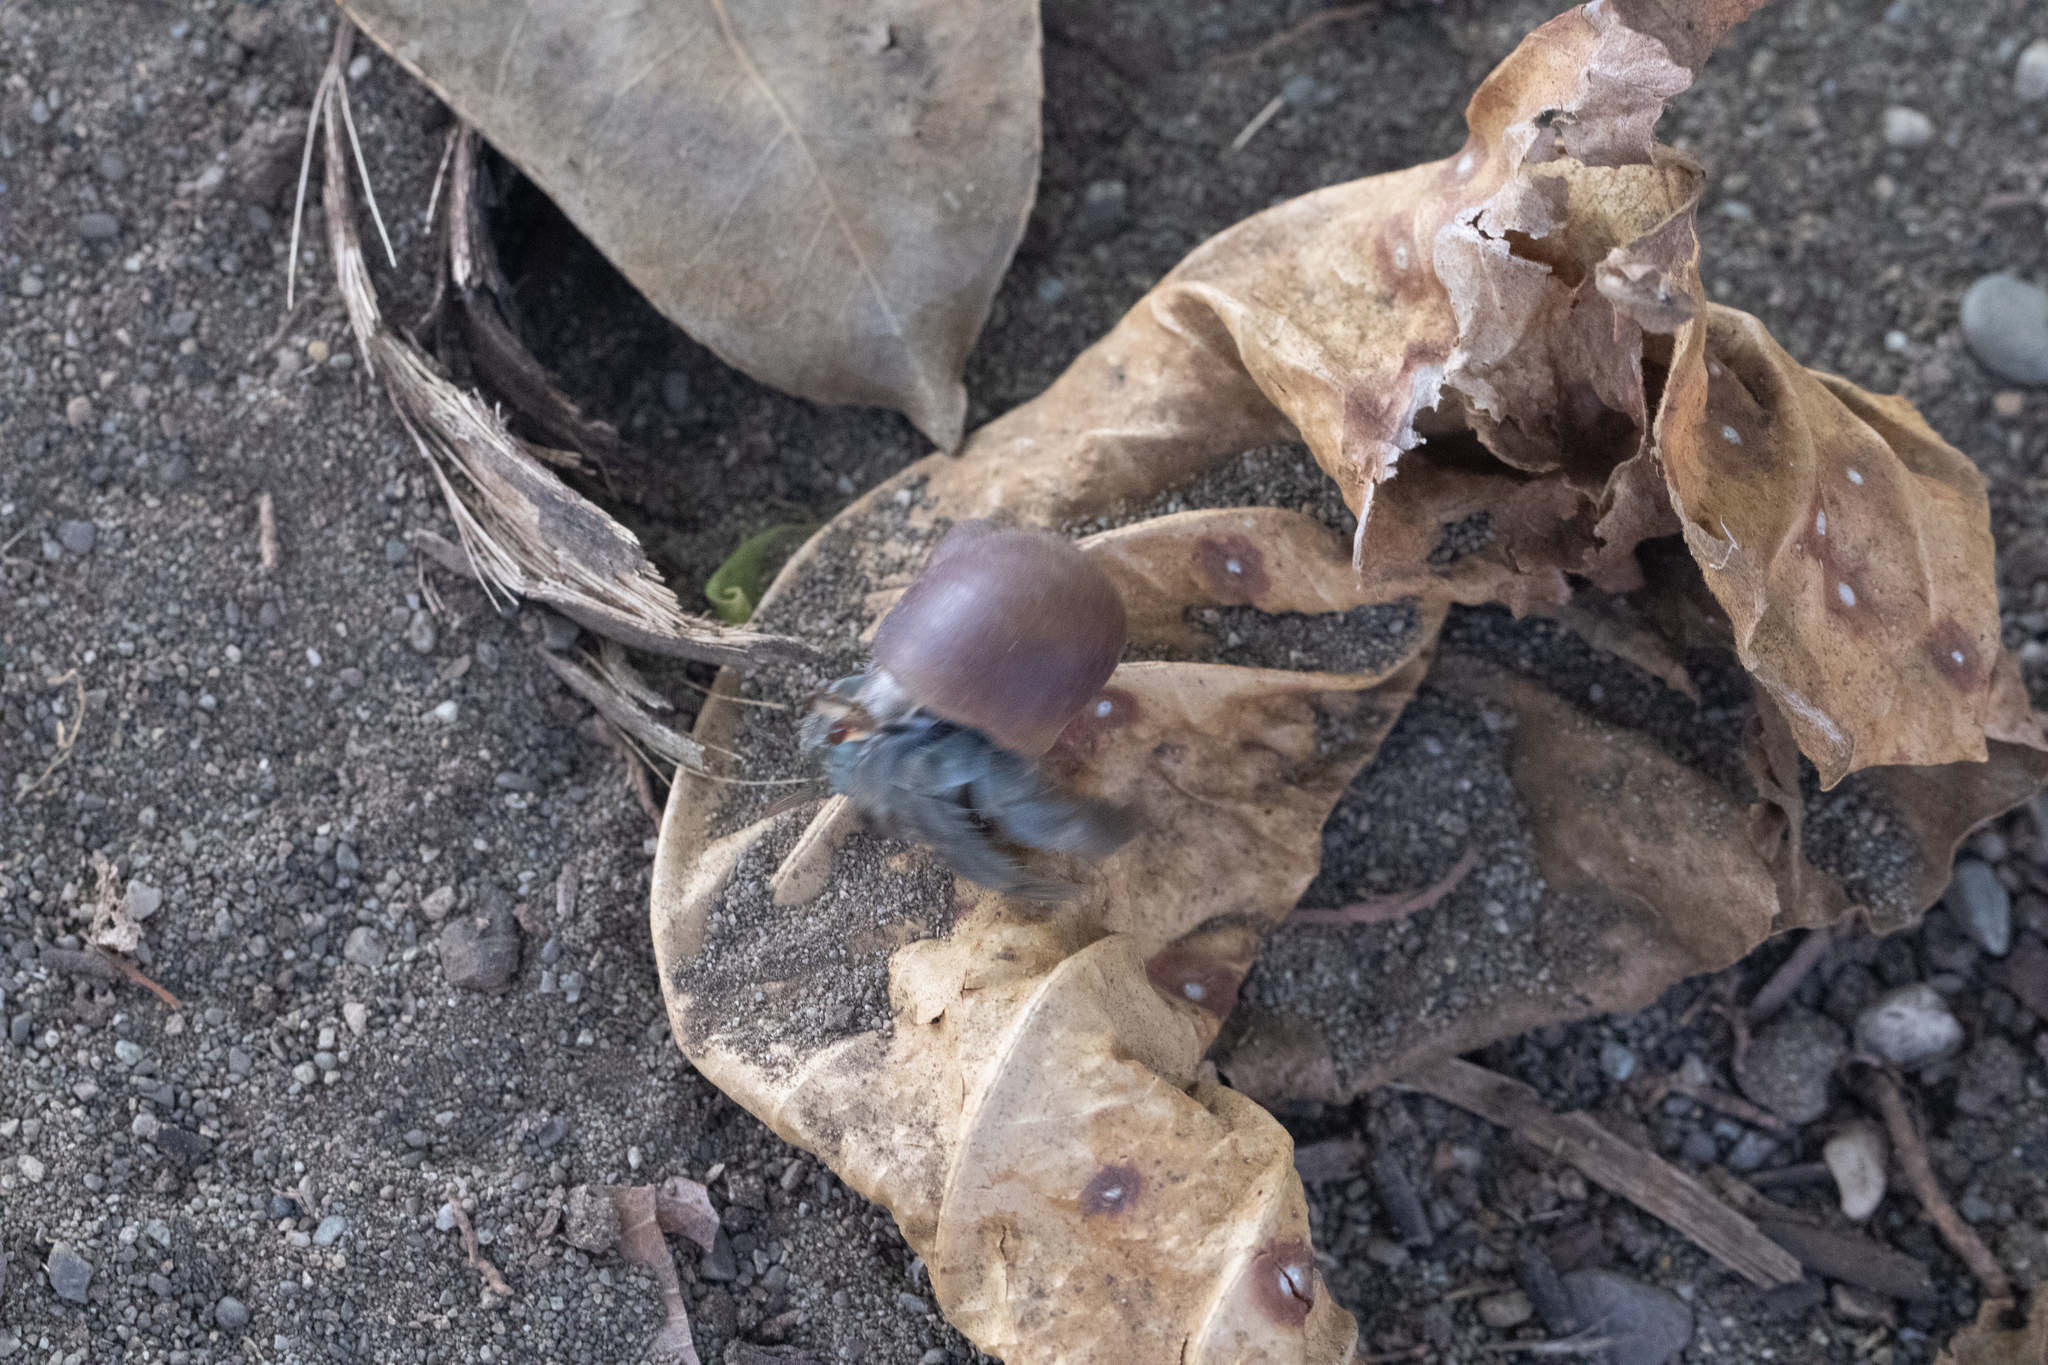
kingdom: Animalia
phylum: Arthropoda
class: Malacostraca
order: Decapoda
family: Coenobitidae
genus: Coenobita
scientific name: Coenobita compressus
